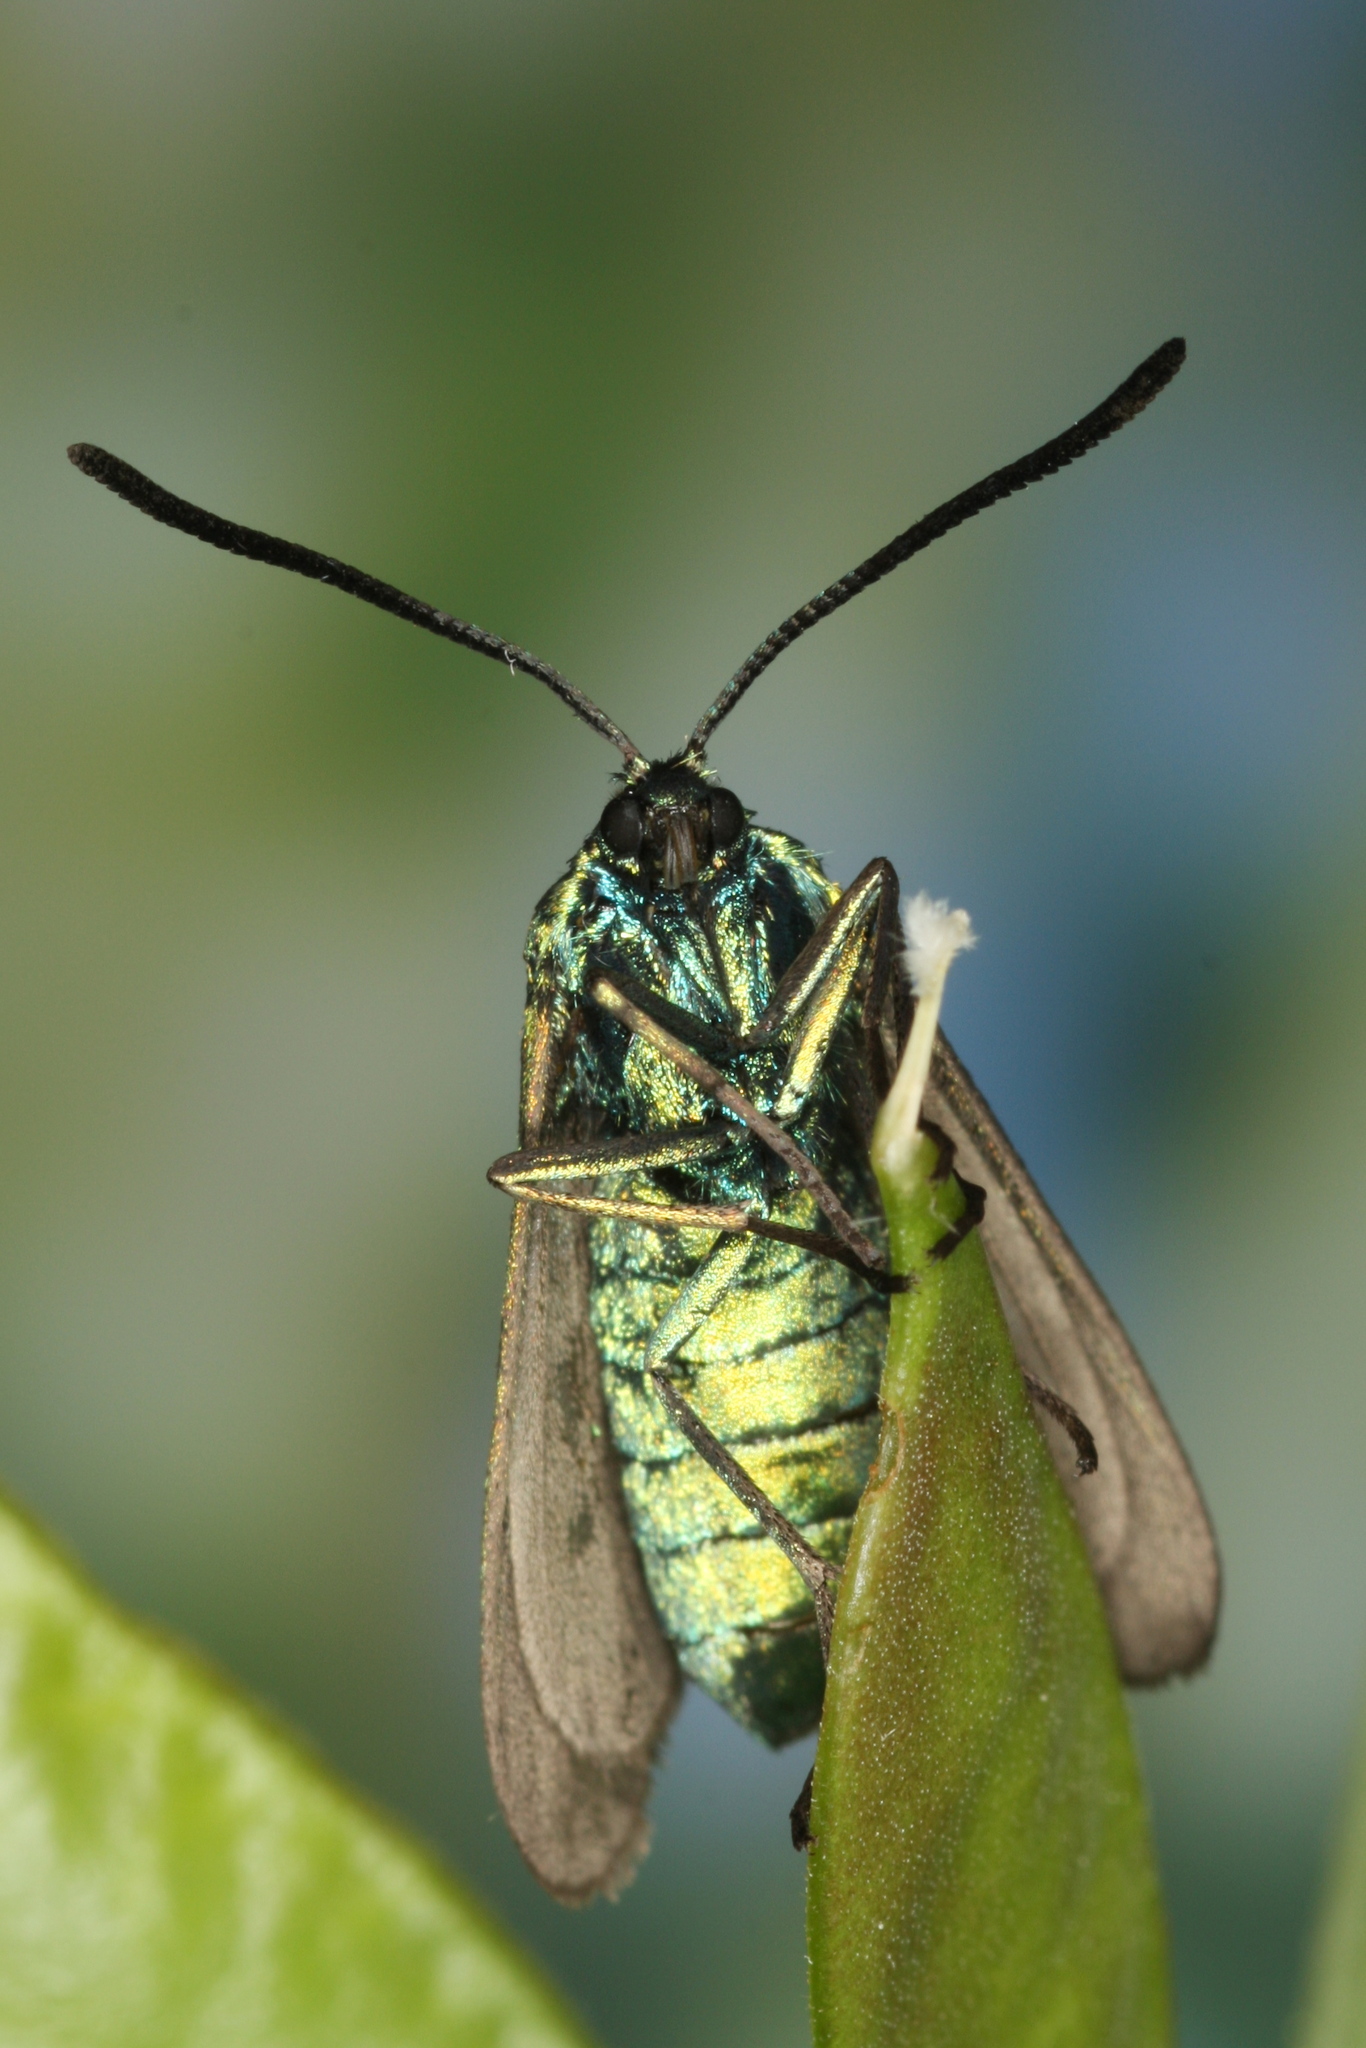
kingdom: Animalia
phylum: Arthropoda
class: Insecta
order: Lepidoptera
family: Zygaenidae
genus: Adscita
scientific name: Adscita statices
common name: Forester
